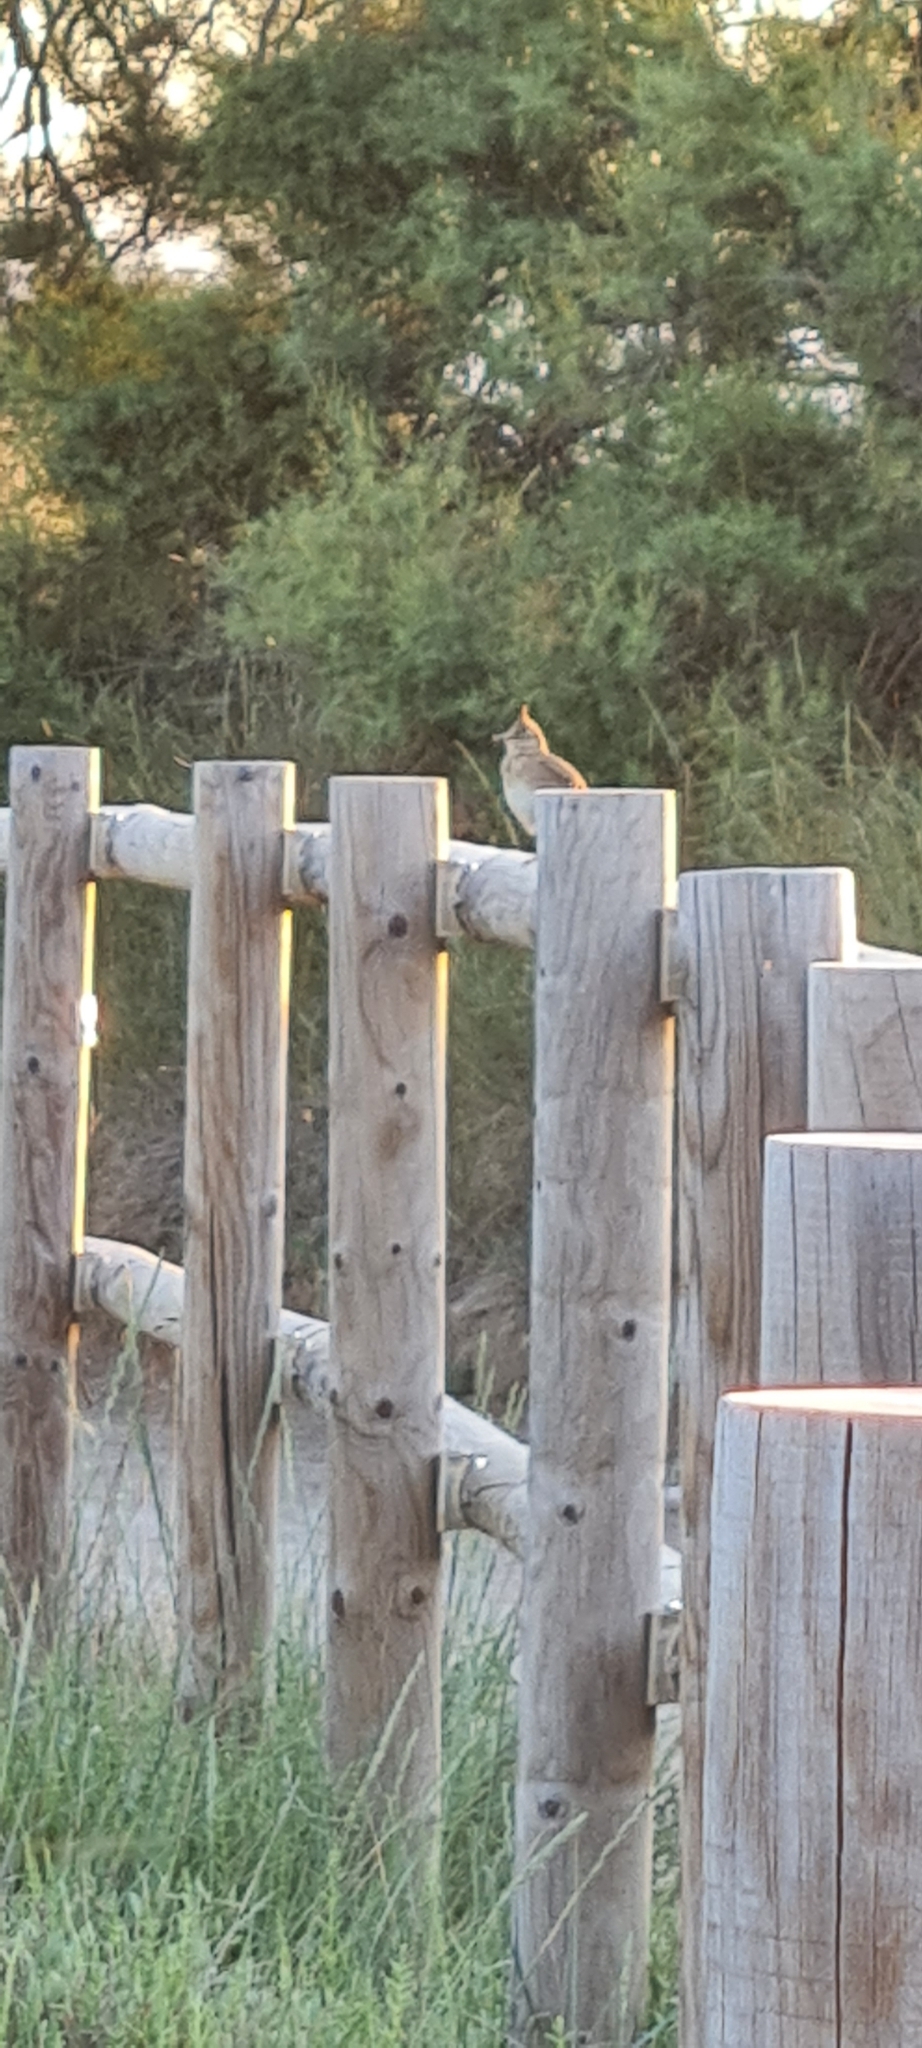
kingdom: Animalia
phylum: Chordata
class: Aves
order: Passeriformes
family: Alaudidae
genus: Galerida
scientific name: Galerida cristata
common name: Crested lark
